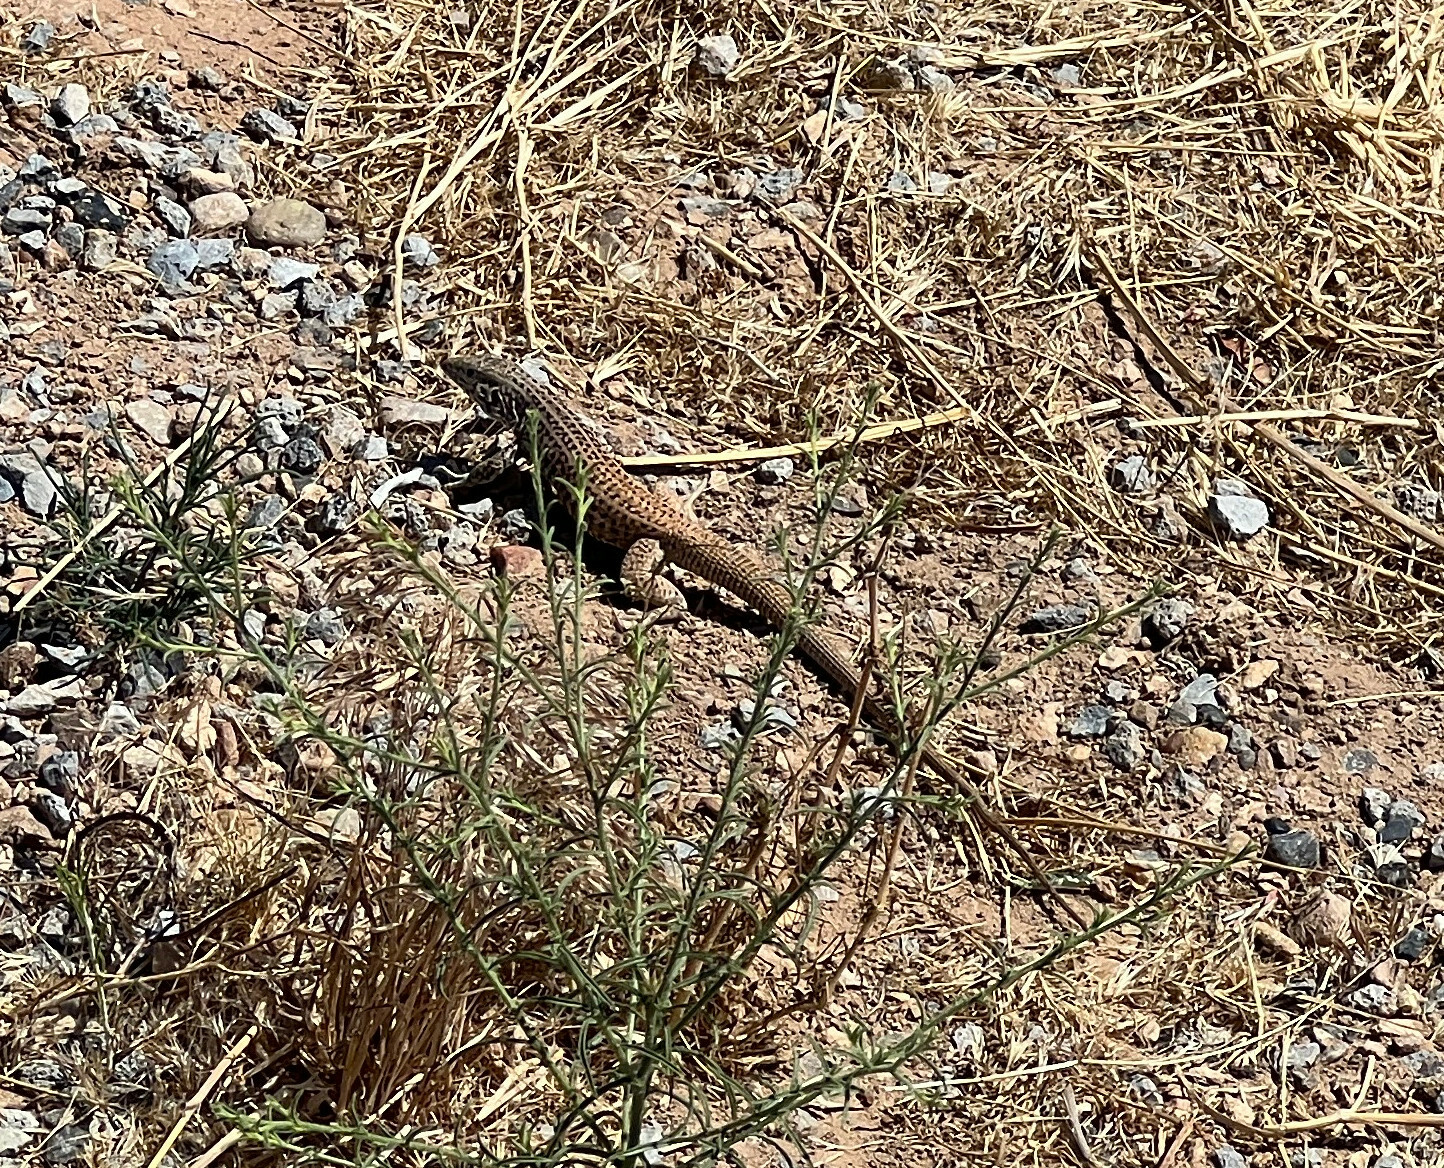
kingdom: Animalia
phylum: Chordata
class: Squamata
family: Teiidae
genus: Aspidoscelis
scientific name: Aspidoscelis tigris
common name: Tiger whiptail
